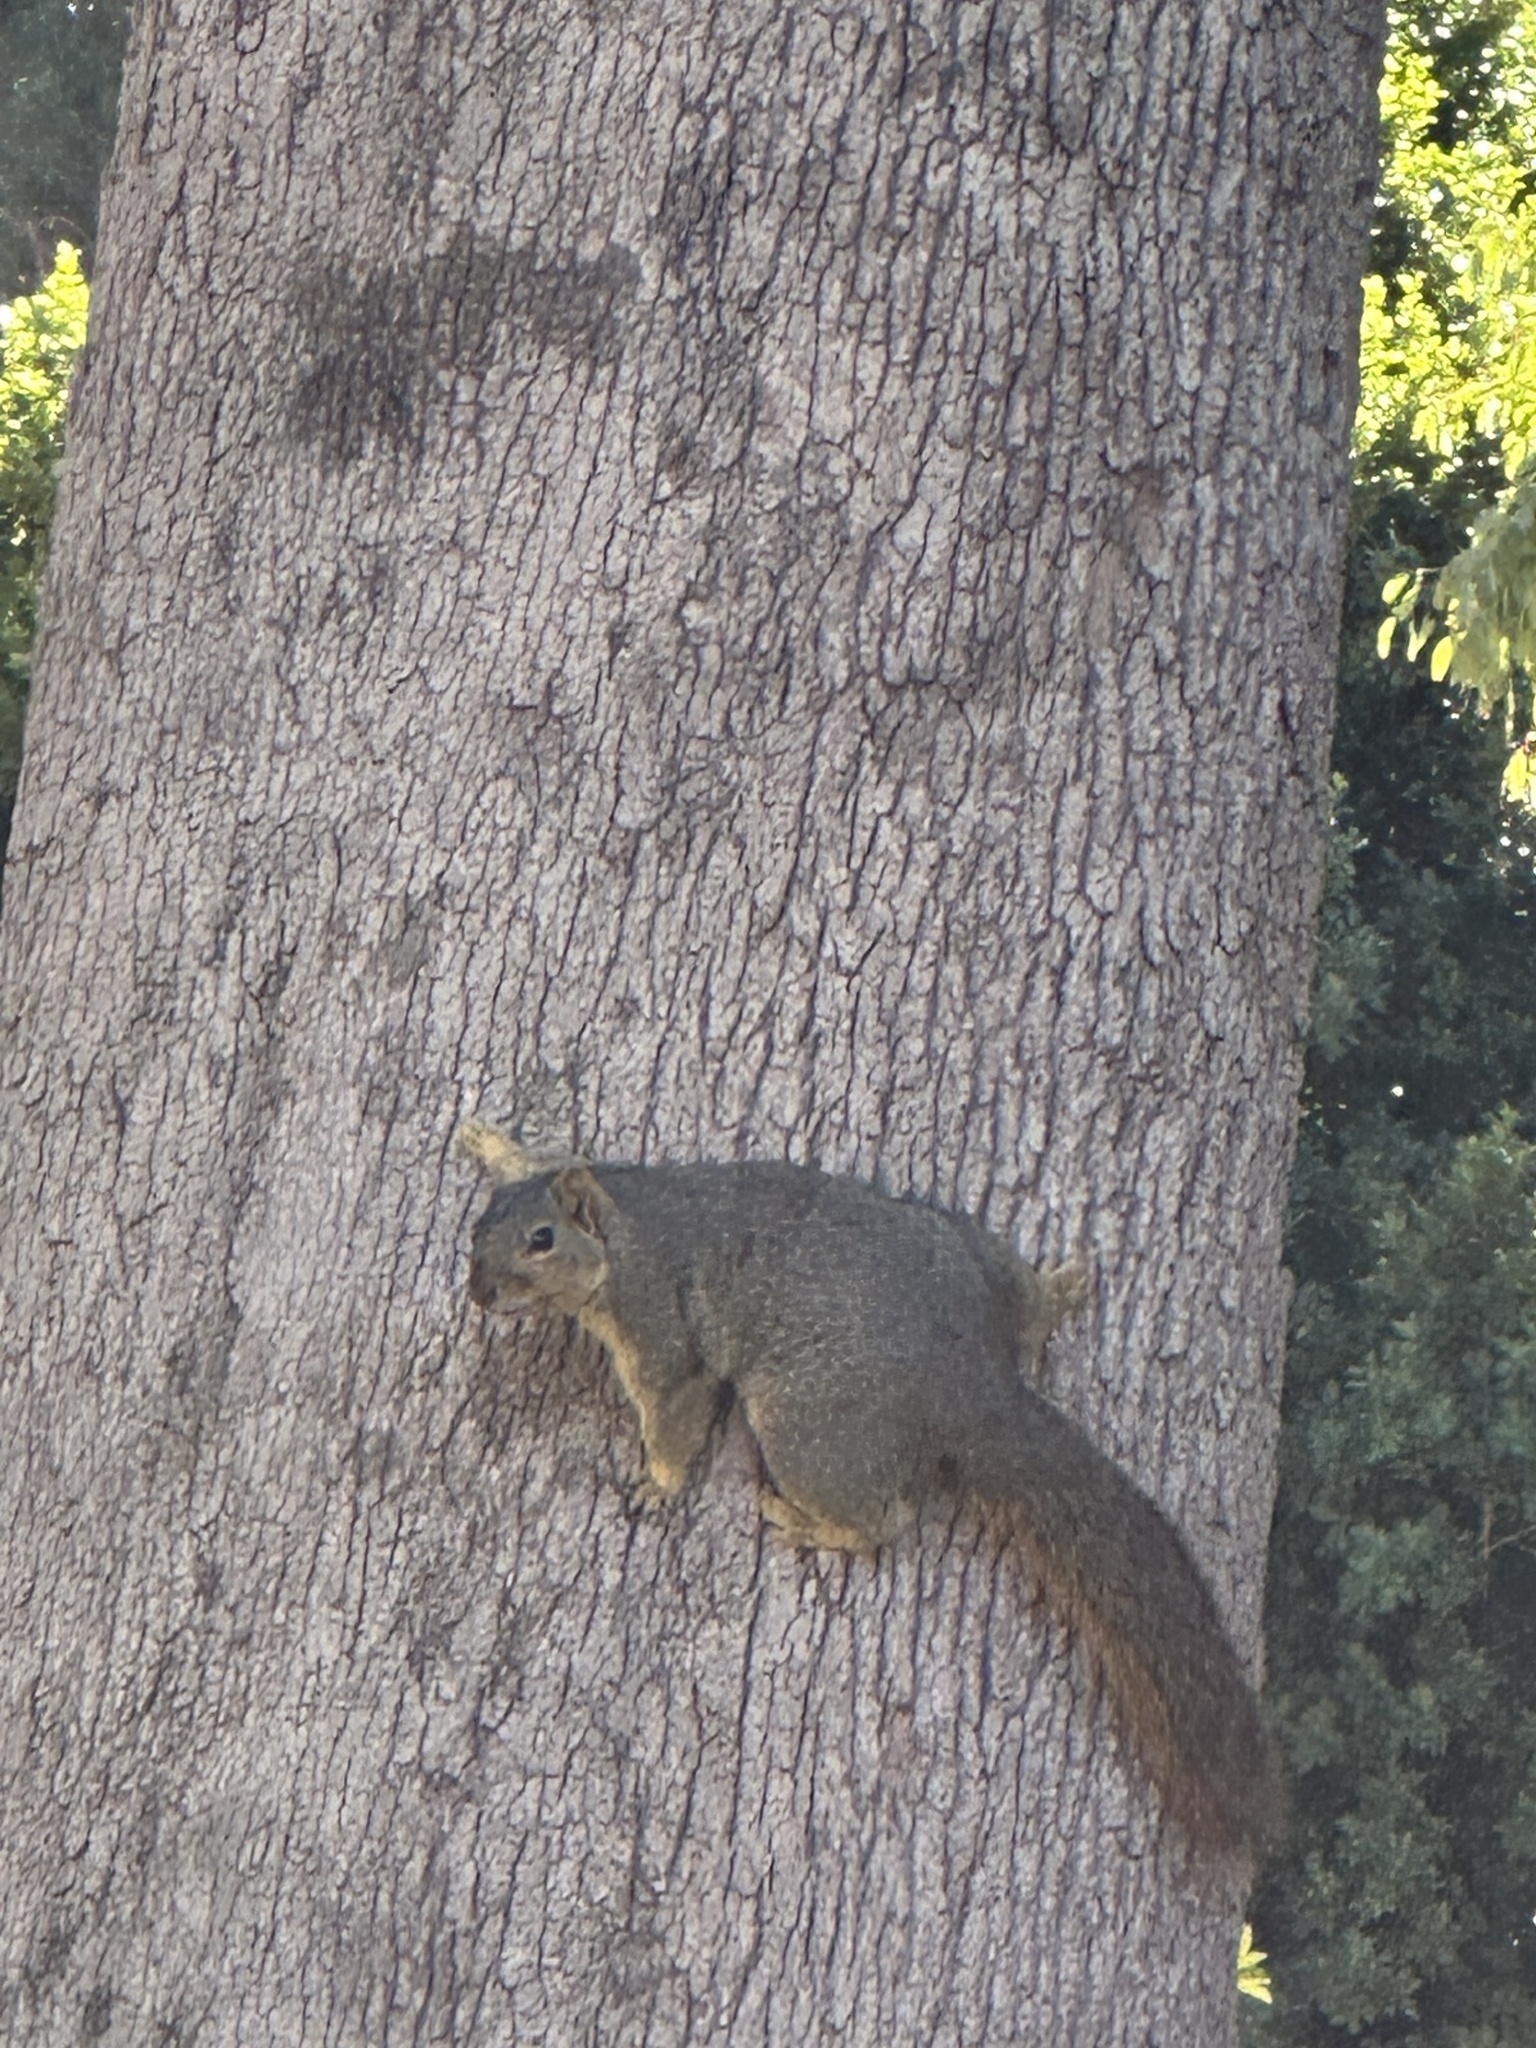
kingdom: Animalia
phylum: Chordata
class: Mammalia
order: Rodentia
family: Sciuridae
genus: Sciurus
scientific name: Sciurus niger
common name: Fox squirrel
